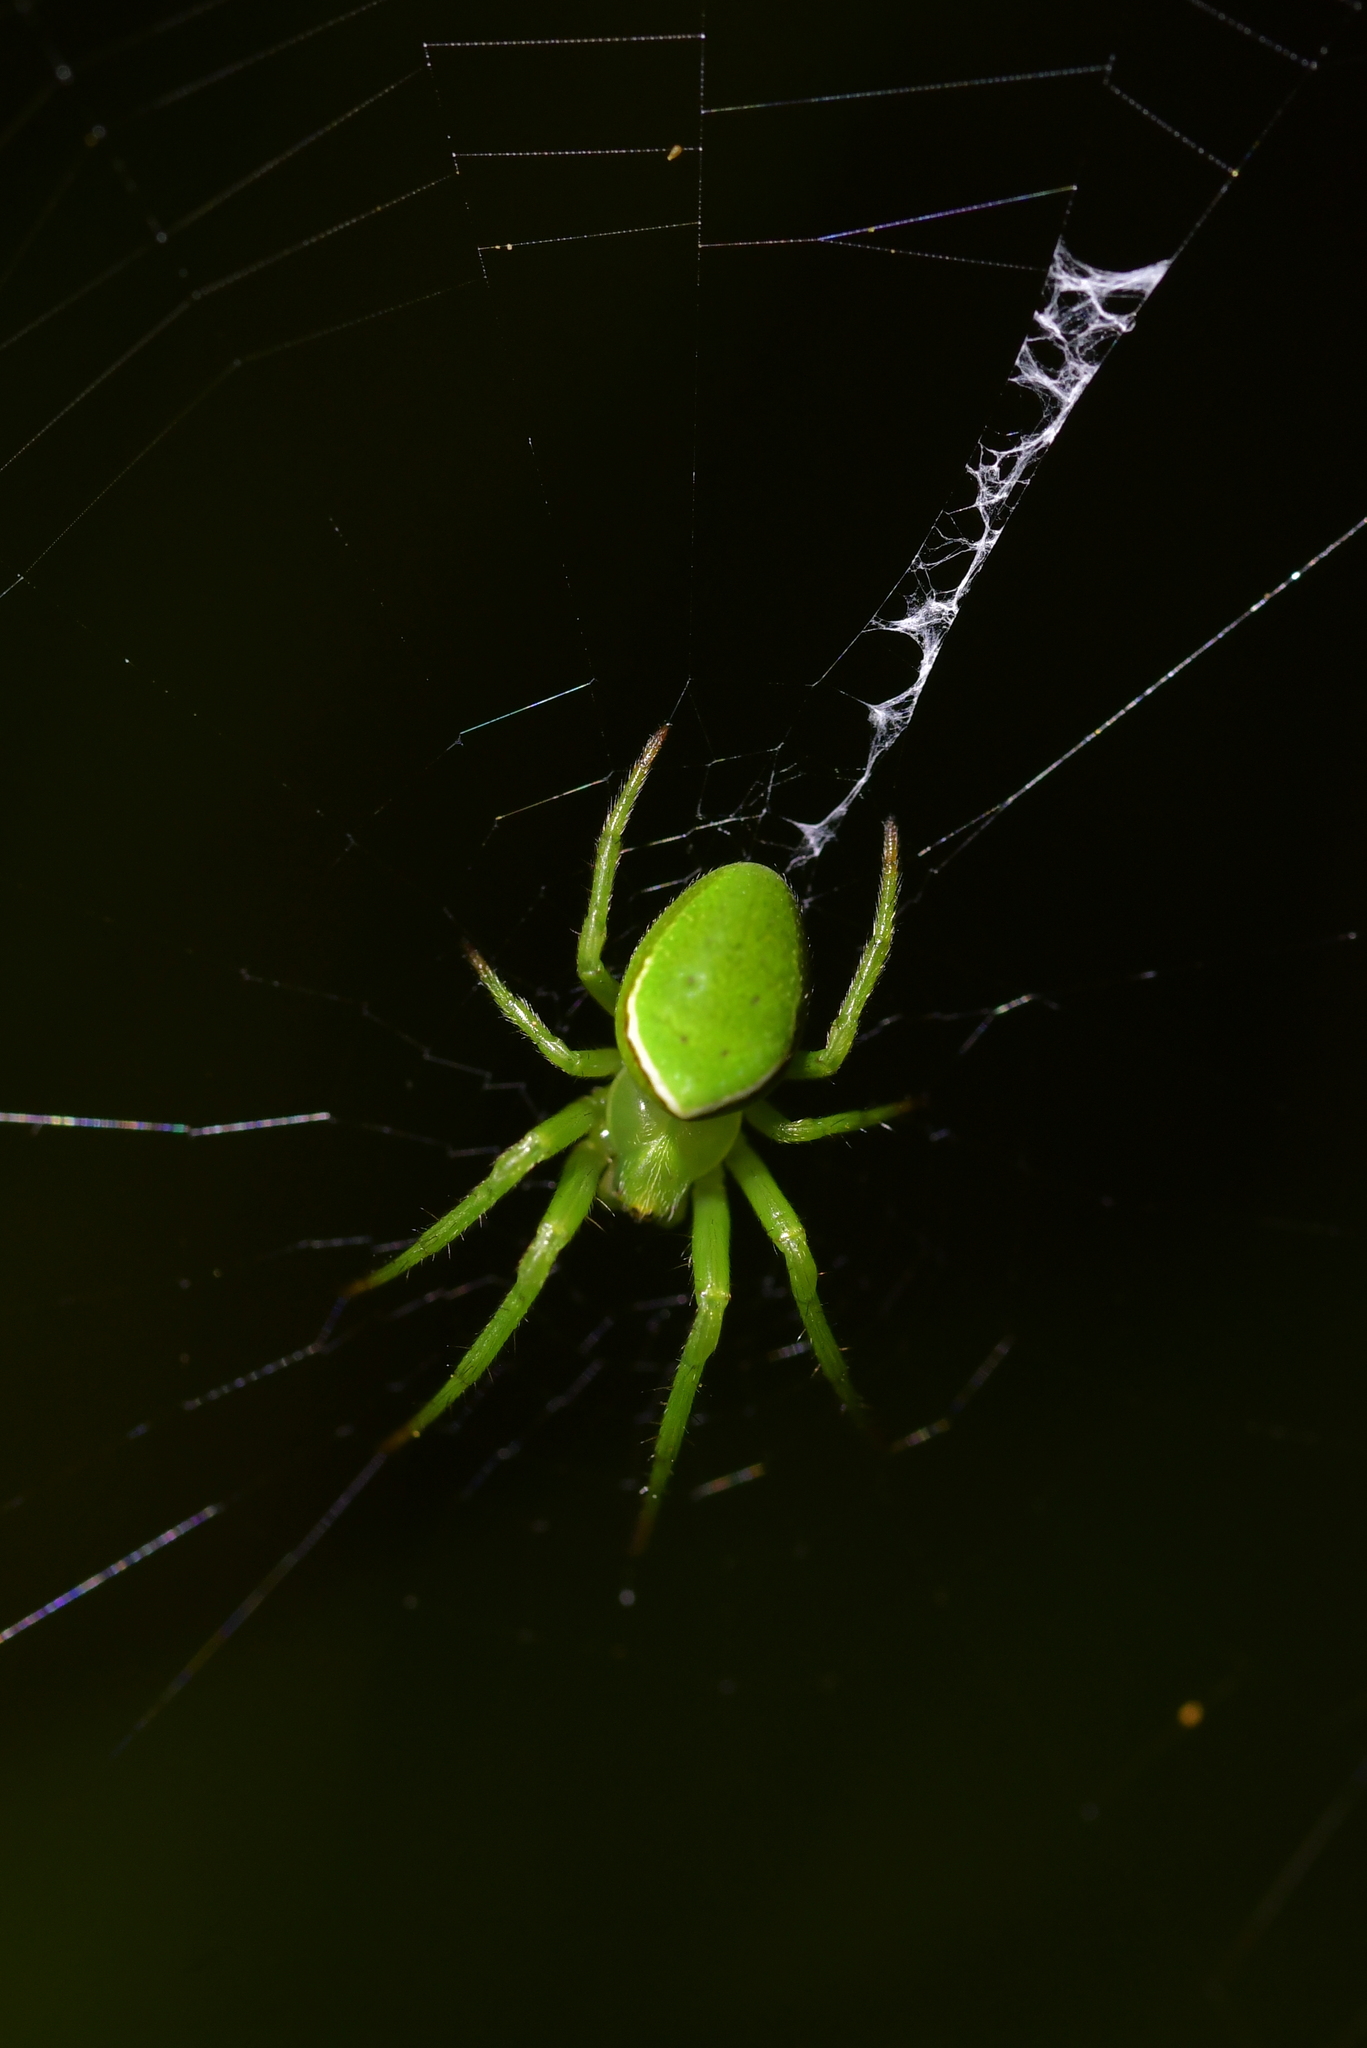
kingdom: Animalia
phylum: Arthropoda
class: Arachnida
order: Araneae
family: Araneidae
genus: Colaranea
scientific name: Colaranea viriditas
